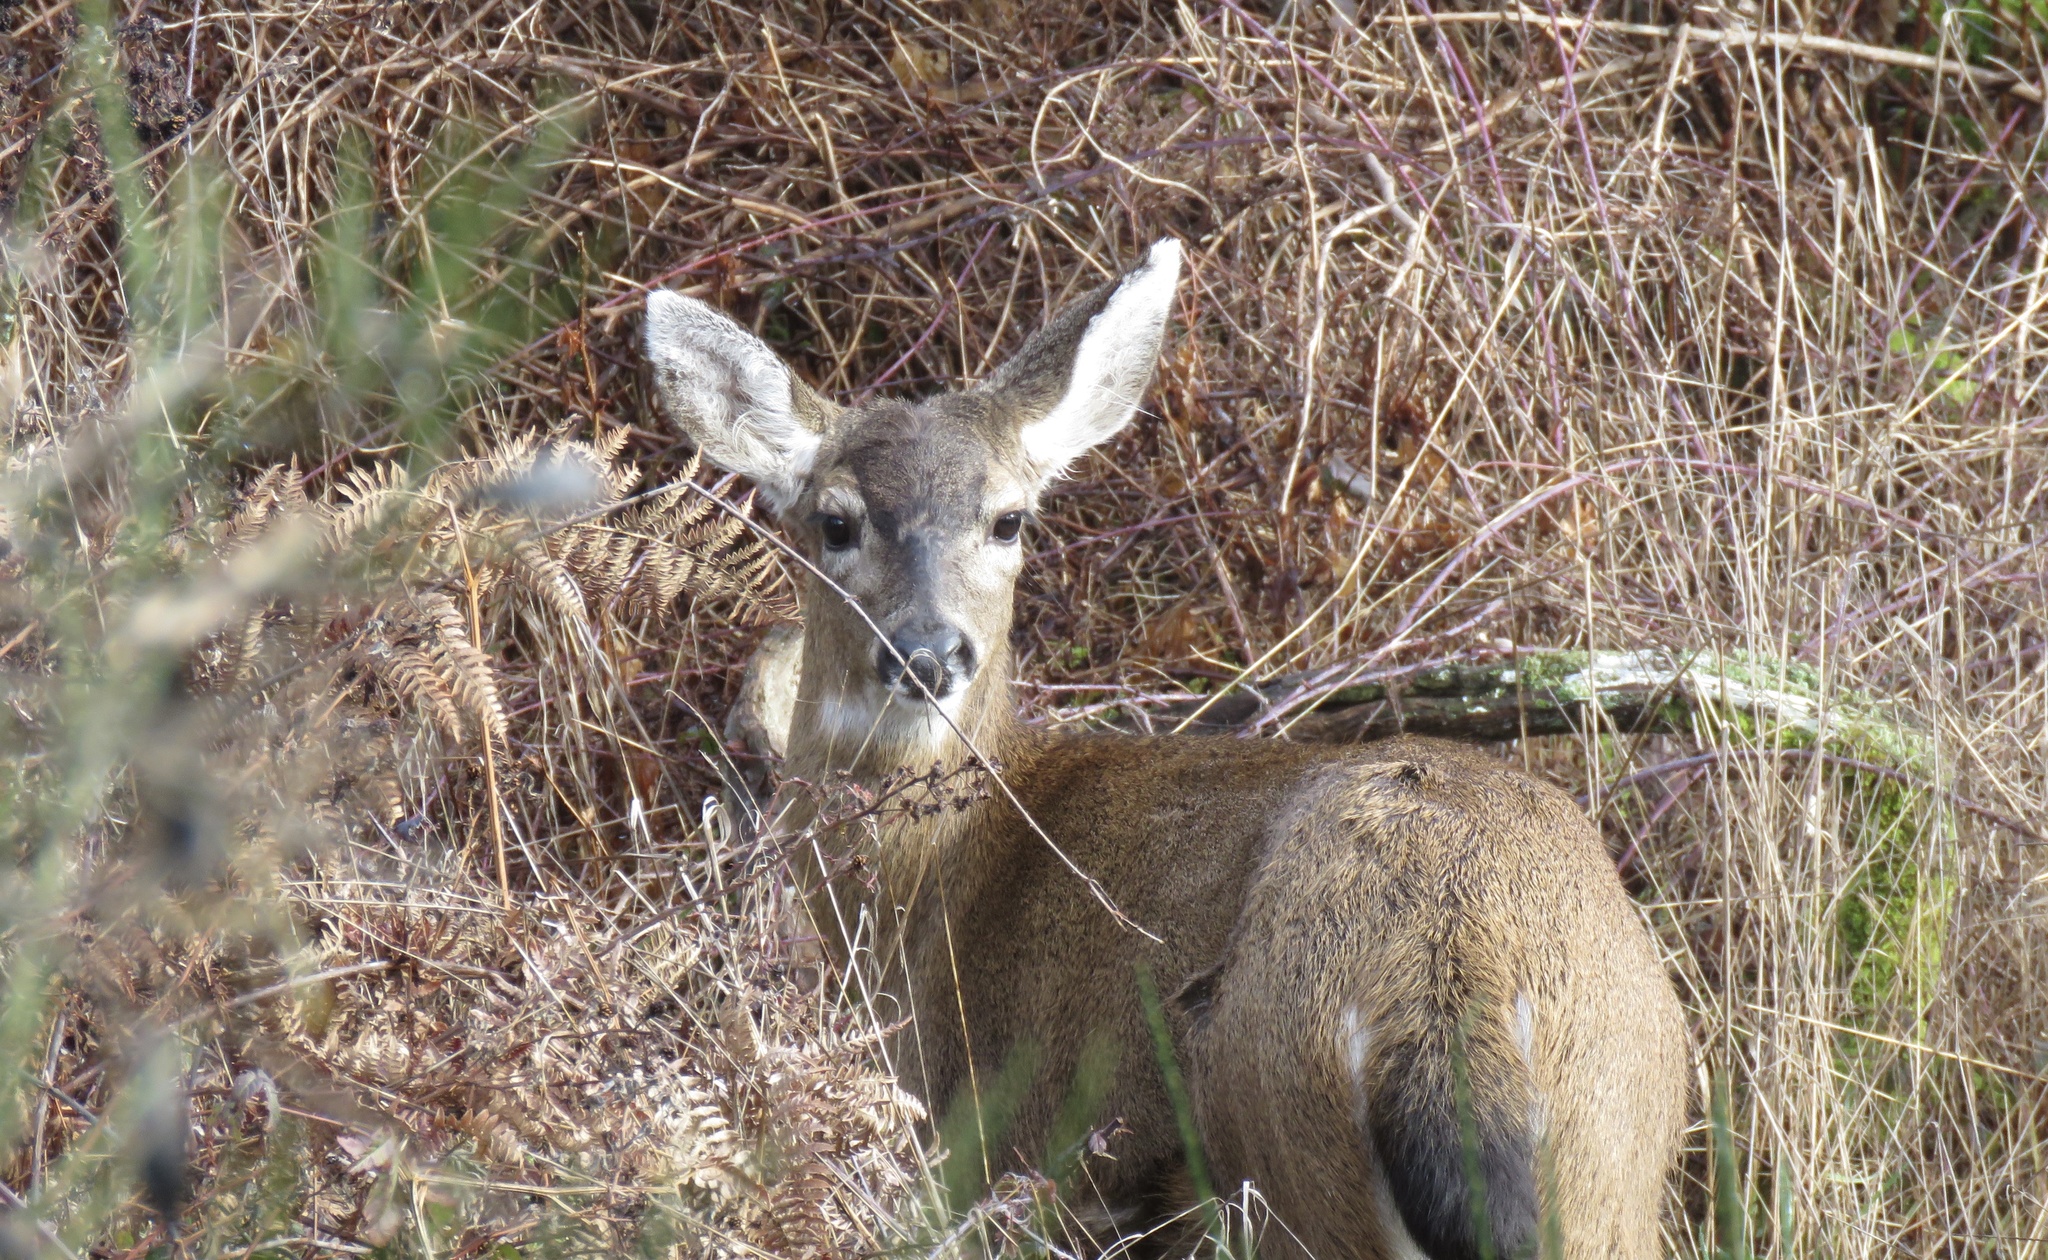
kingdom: Animalia
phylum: Chordata
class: Mammalia
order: Artiodactyla
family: Cervidae
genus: Odocoileus
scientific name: Odocoileus hemionus
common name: Mule deer
